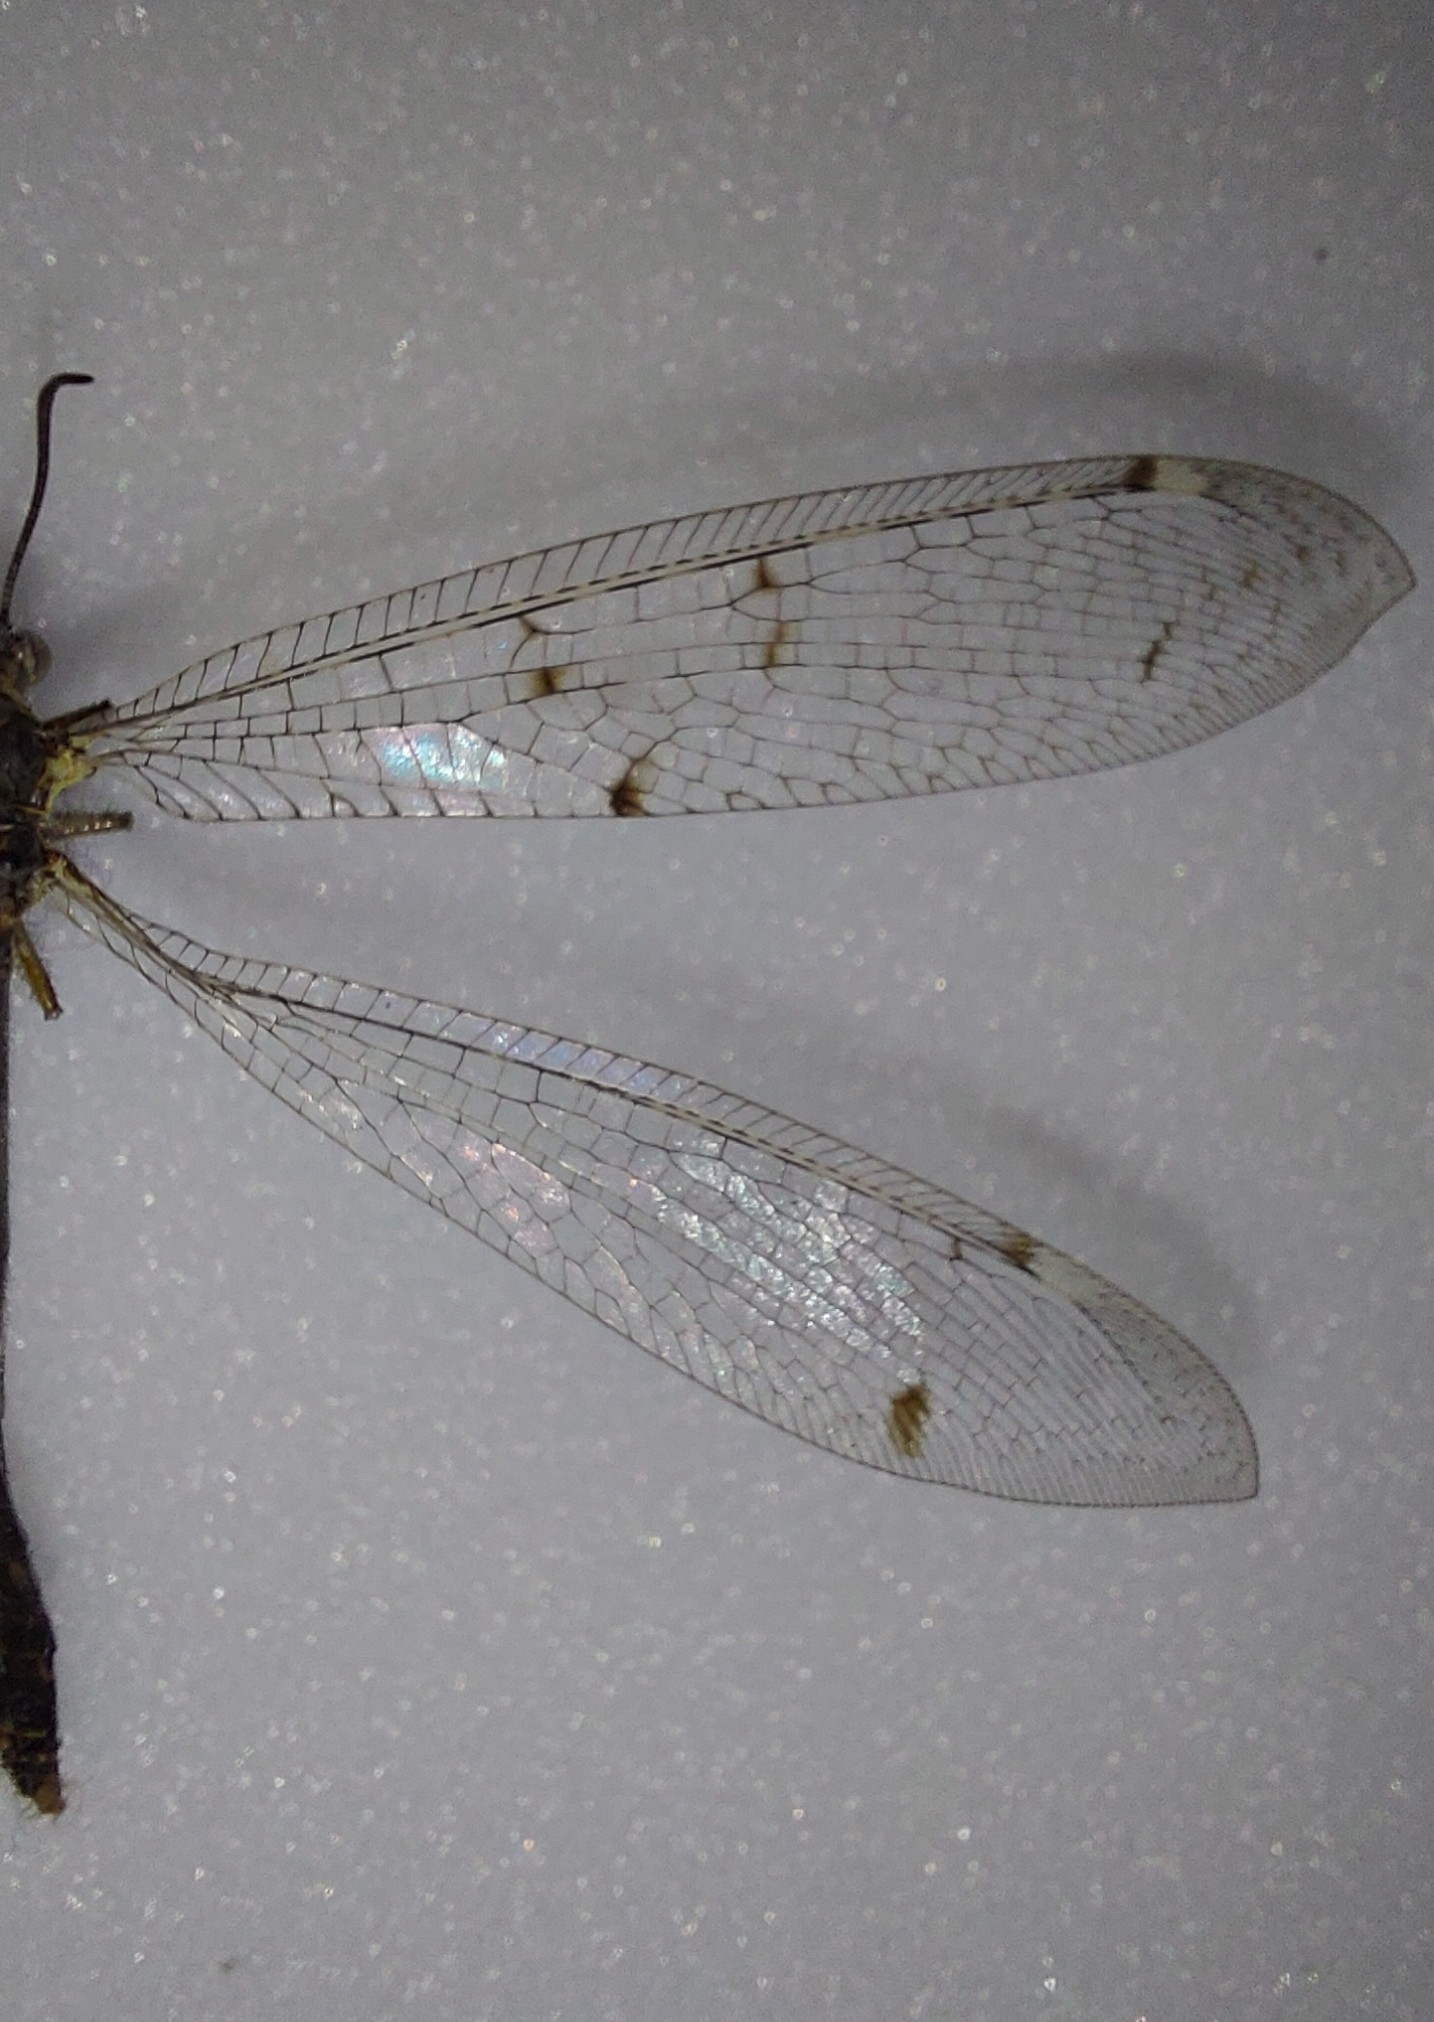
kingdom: Animalia
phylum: Arthropoda
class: Insecta
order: Neuroptera
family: Myrmeleontidae
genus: Distoleon
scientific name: Distoleon tetragrammicus
